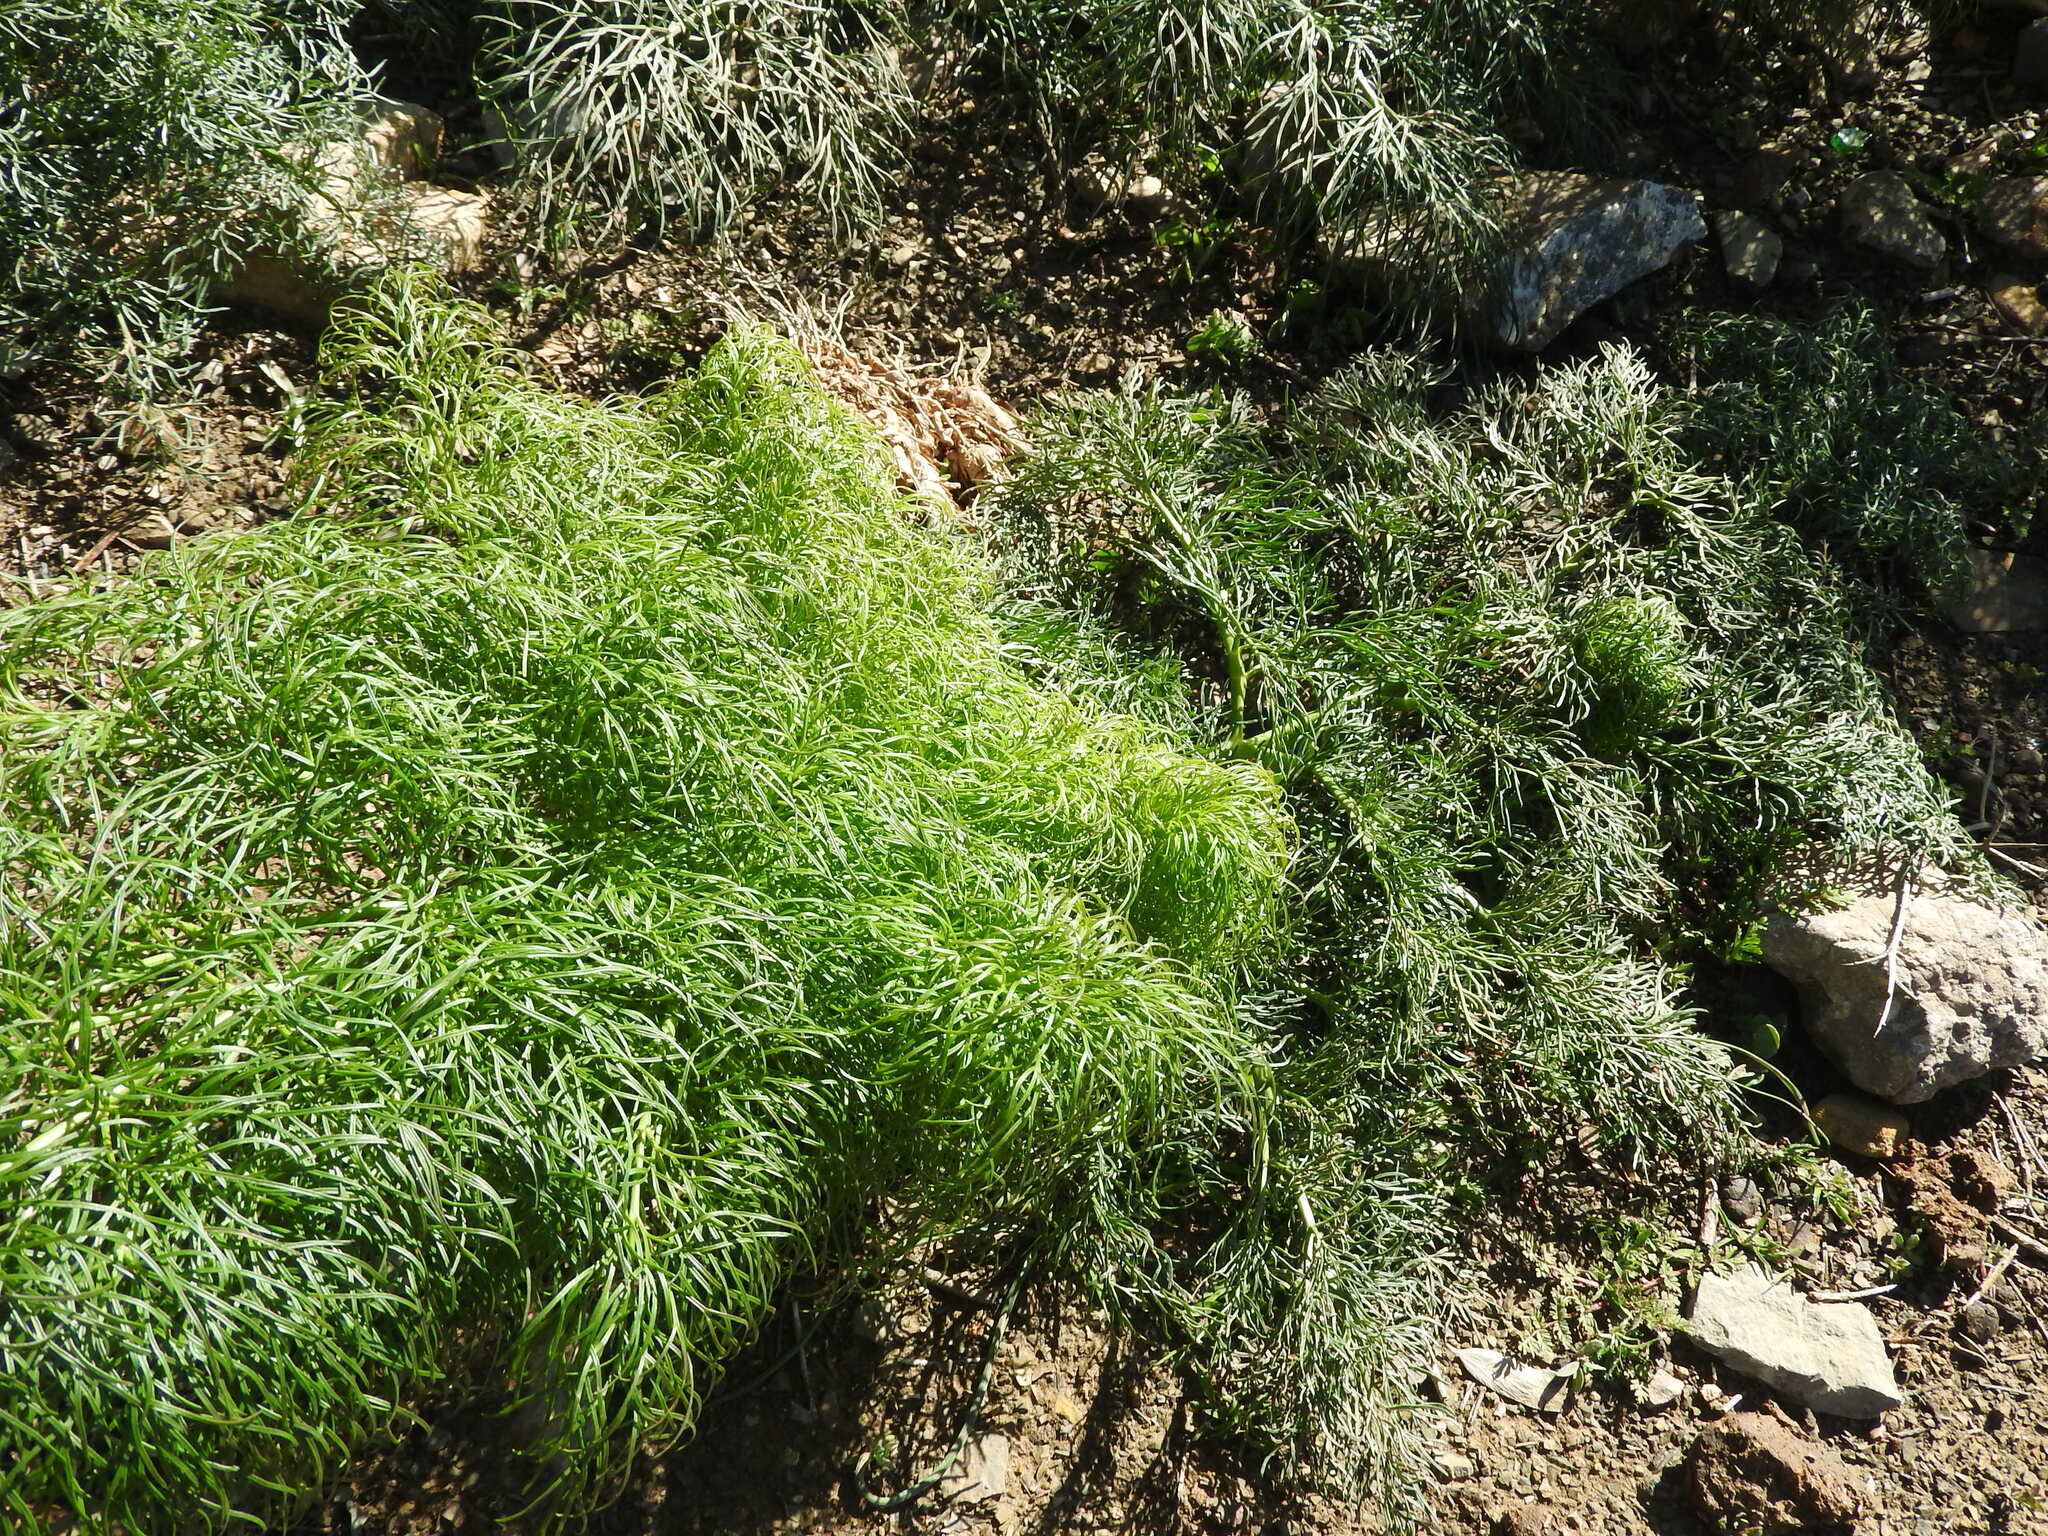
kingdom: Plantae
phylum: Tracheophyta
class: Magnoliopsida
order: Apiales
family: Apiaceae
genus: Ferula
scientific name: Ferula communis
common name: Giant fennel
